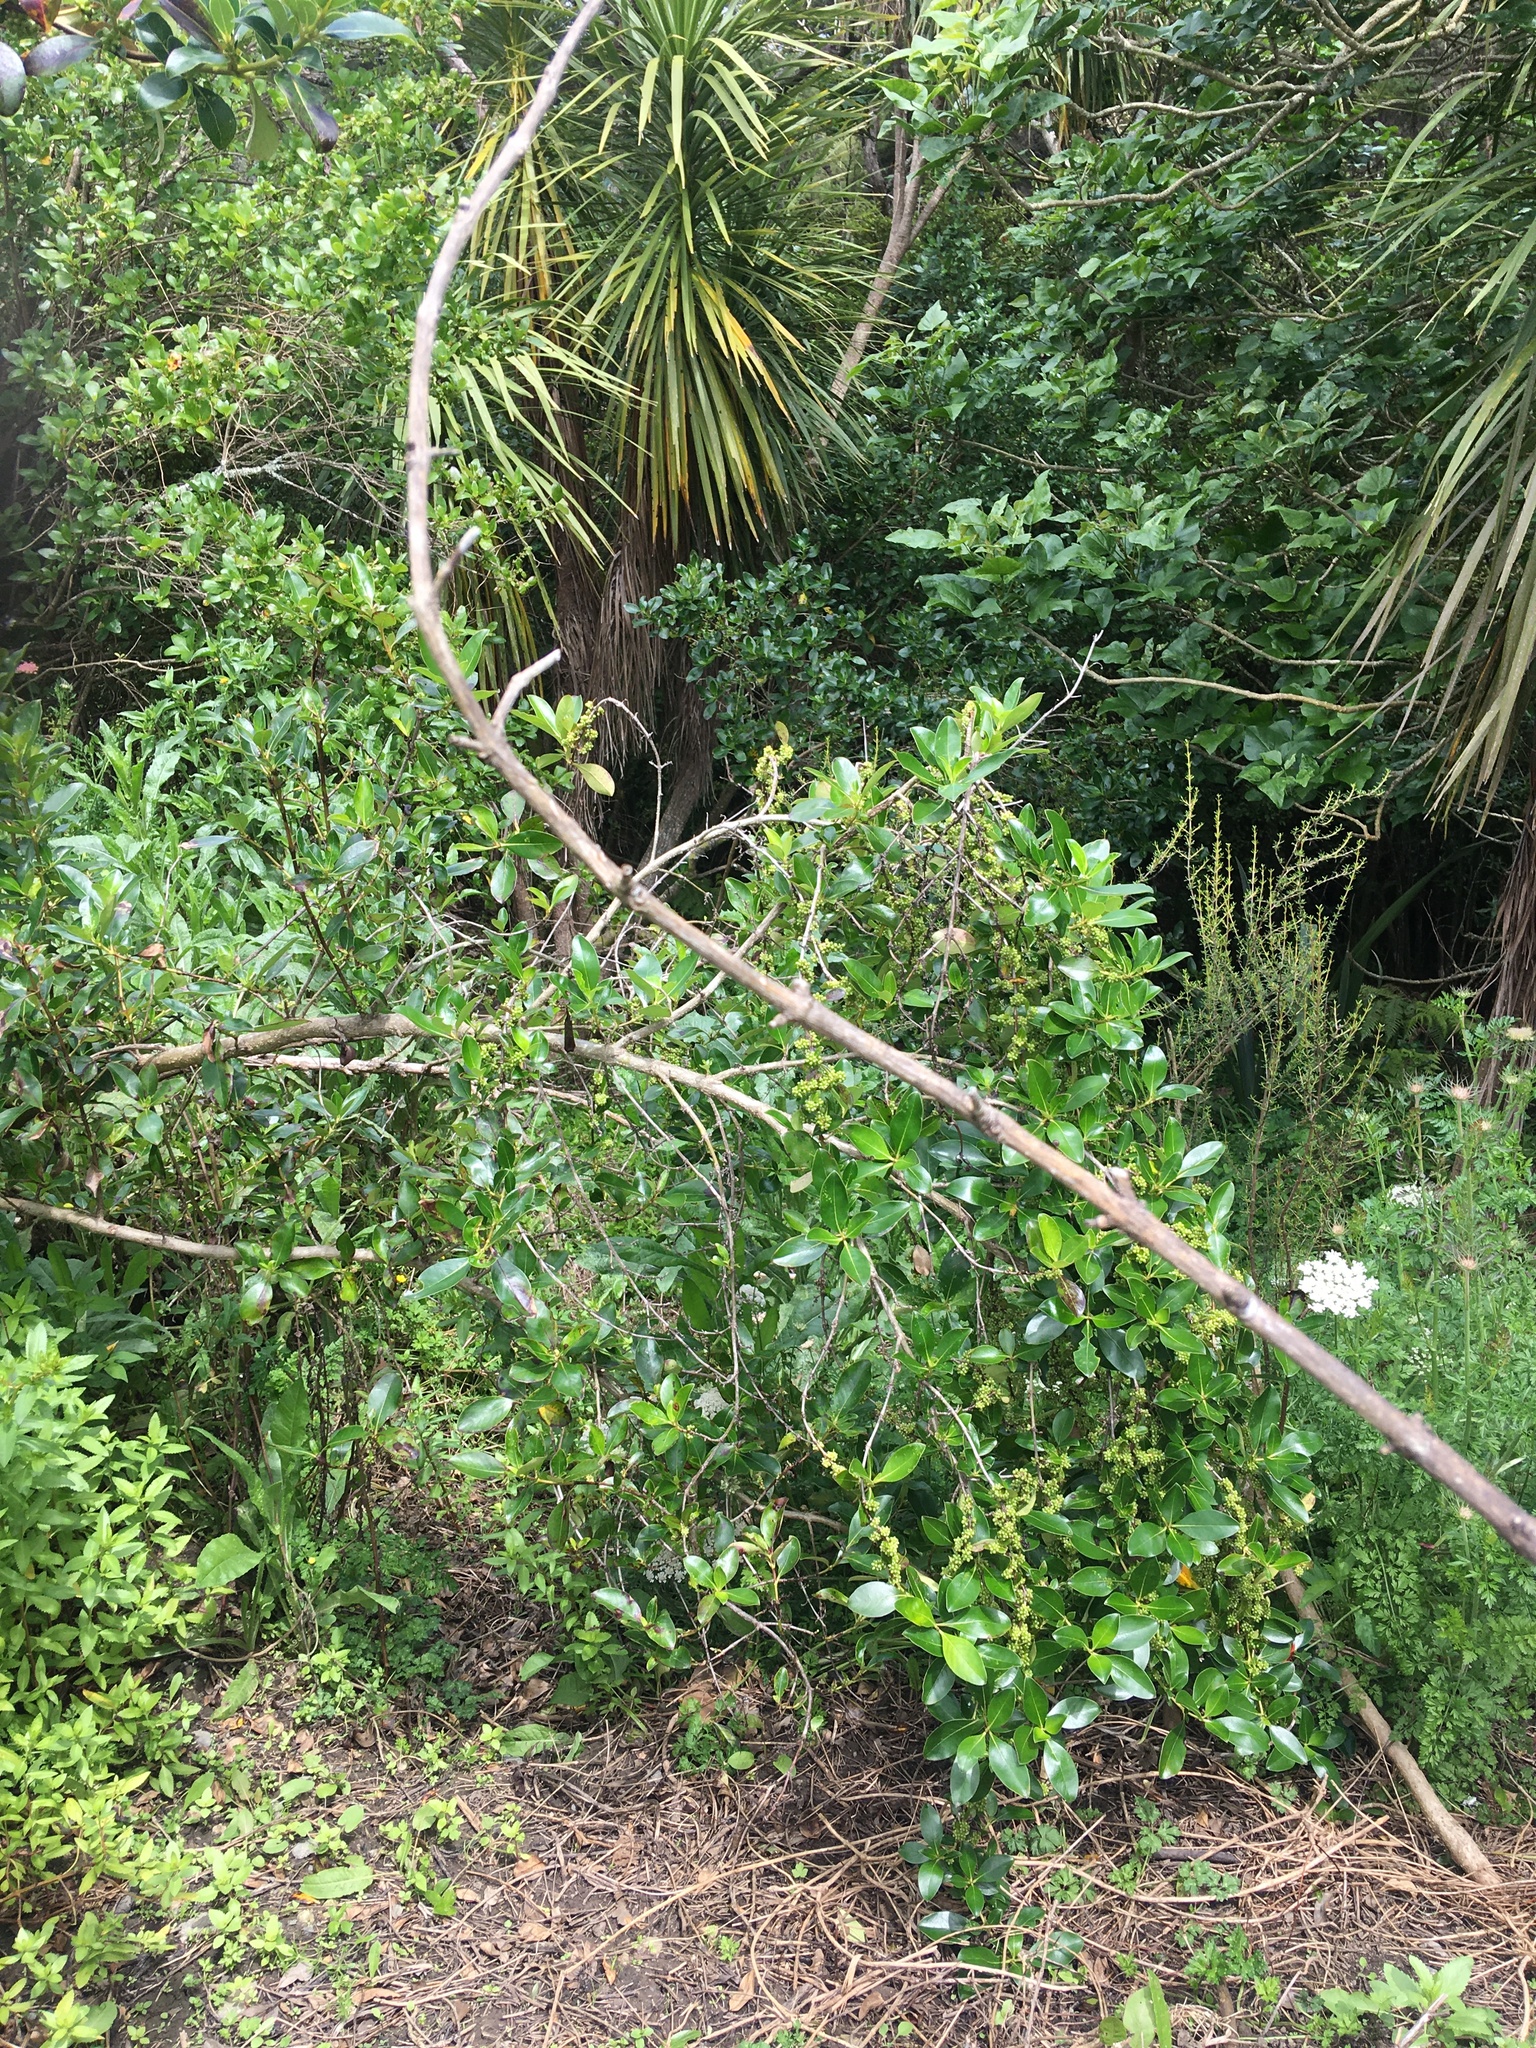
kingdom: Plantae
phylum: Tracheophyta
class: Magnoliopsida
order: Gentianales
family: Rubiaceae
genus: Coprosma
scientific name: Coprosma robusta
